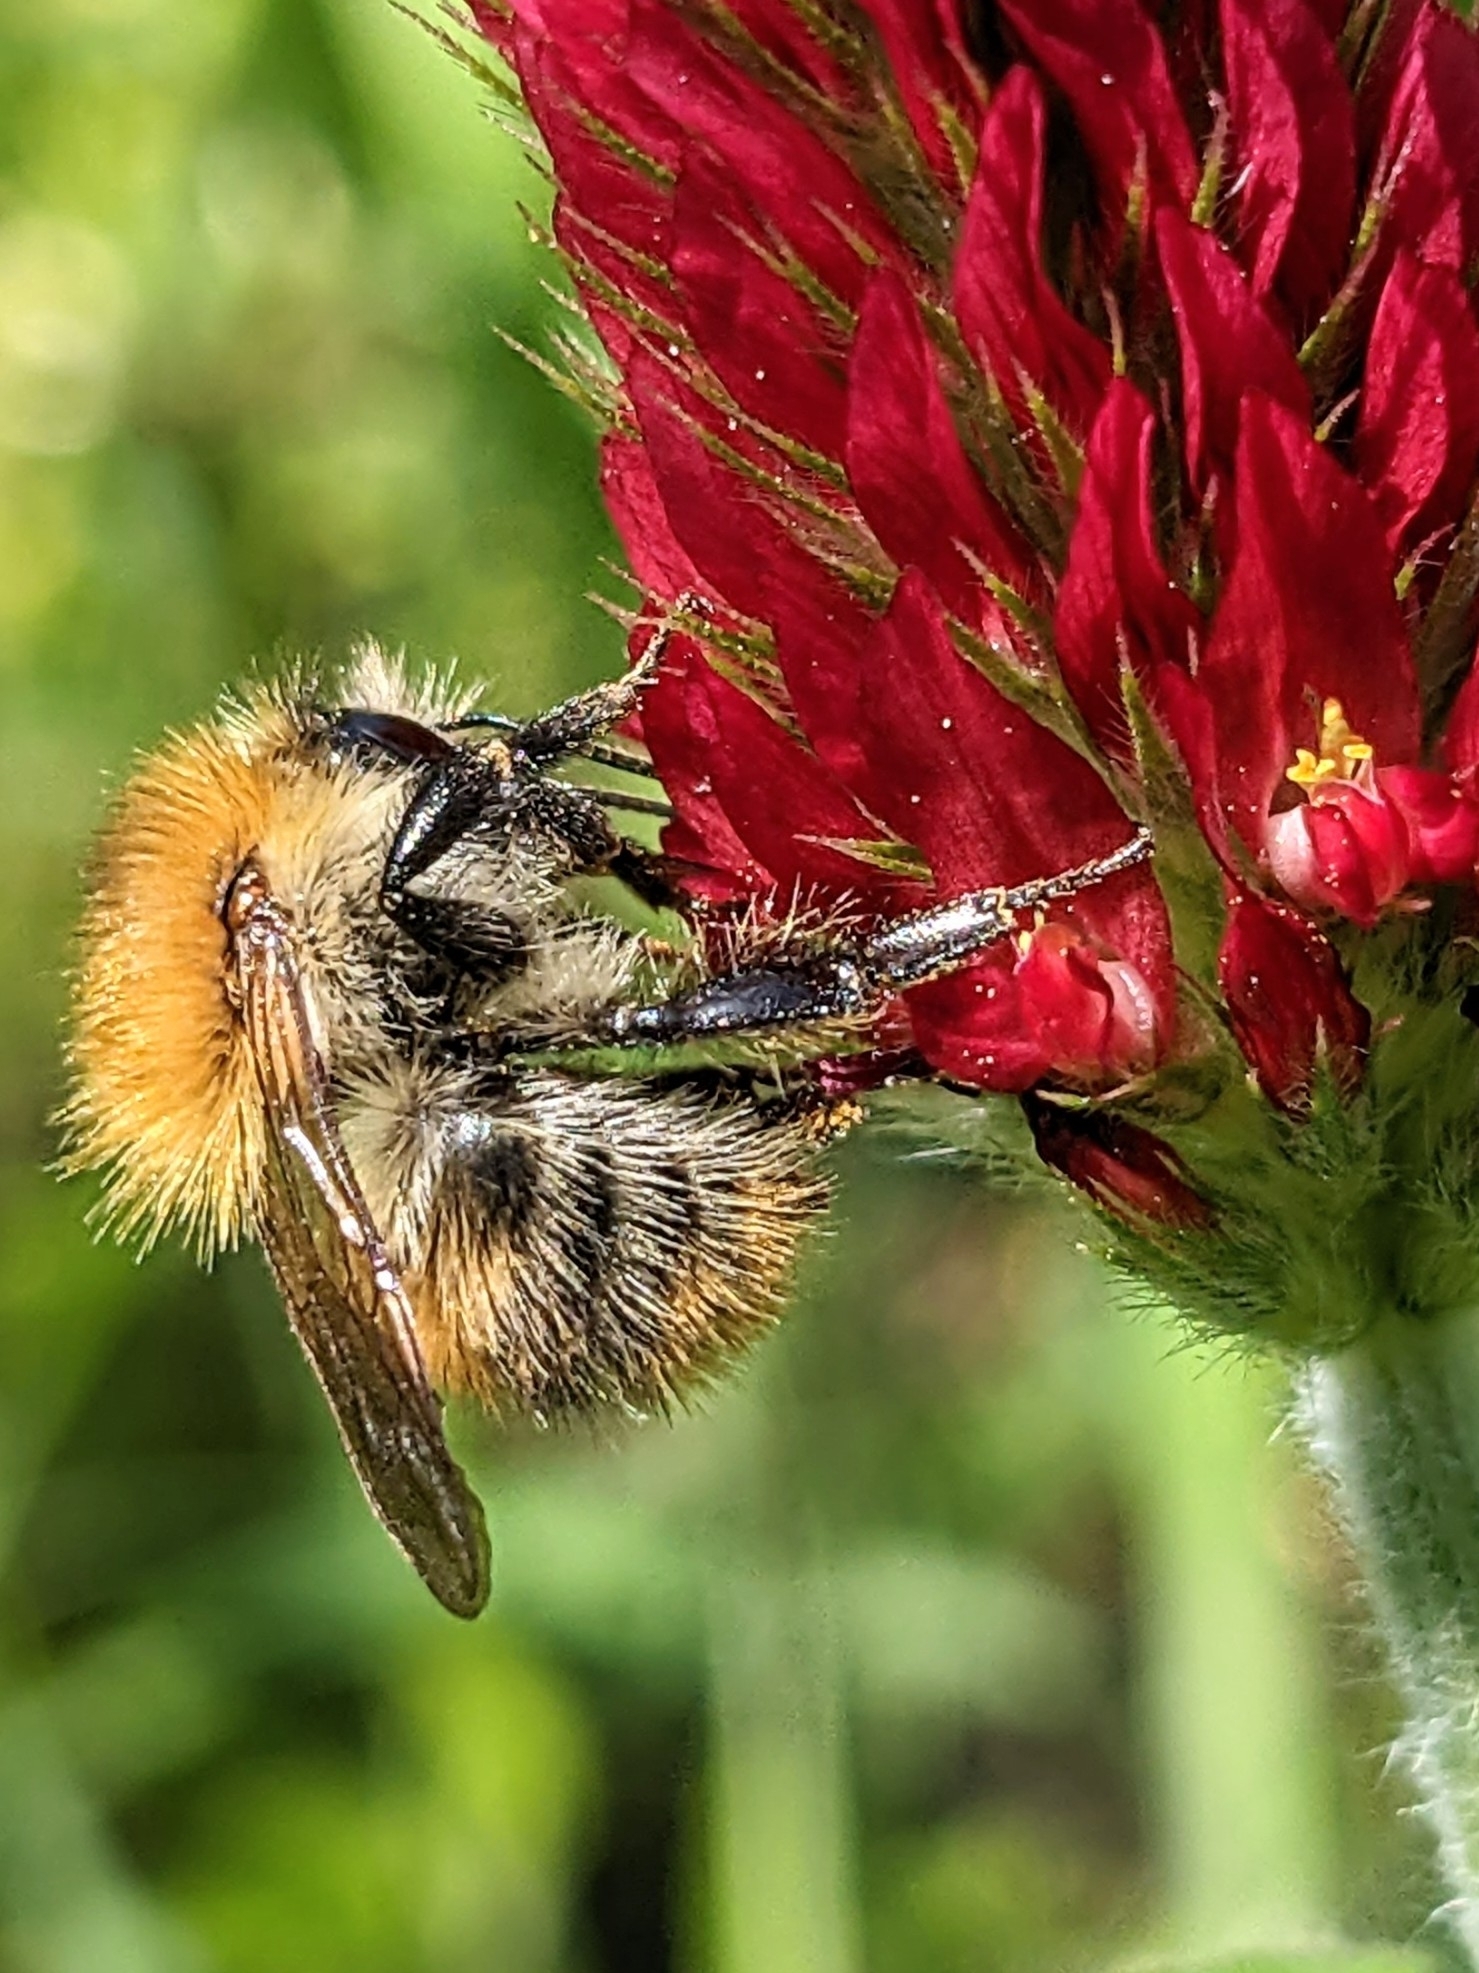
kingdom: Animalia
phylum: Arthropoda
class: Insecta
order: Hymenoptera
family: Apidae
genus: Bombus
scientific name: Bombus pascuorum
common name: Common carder bee
